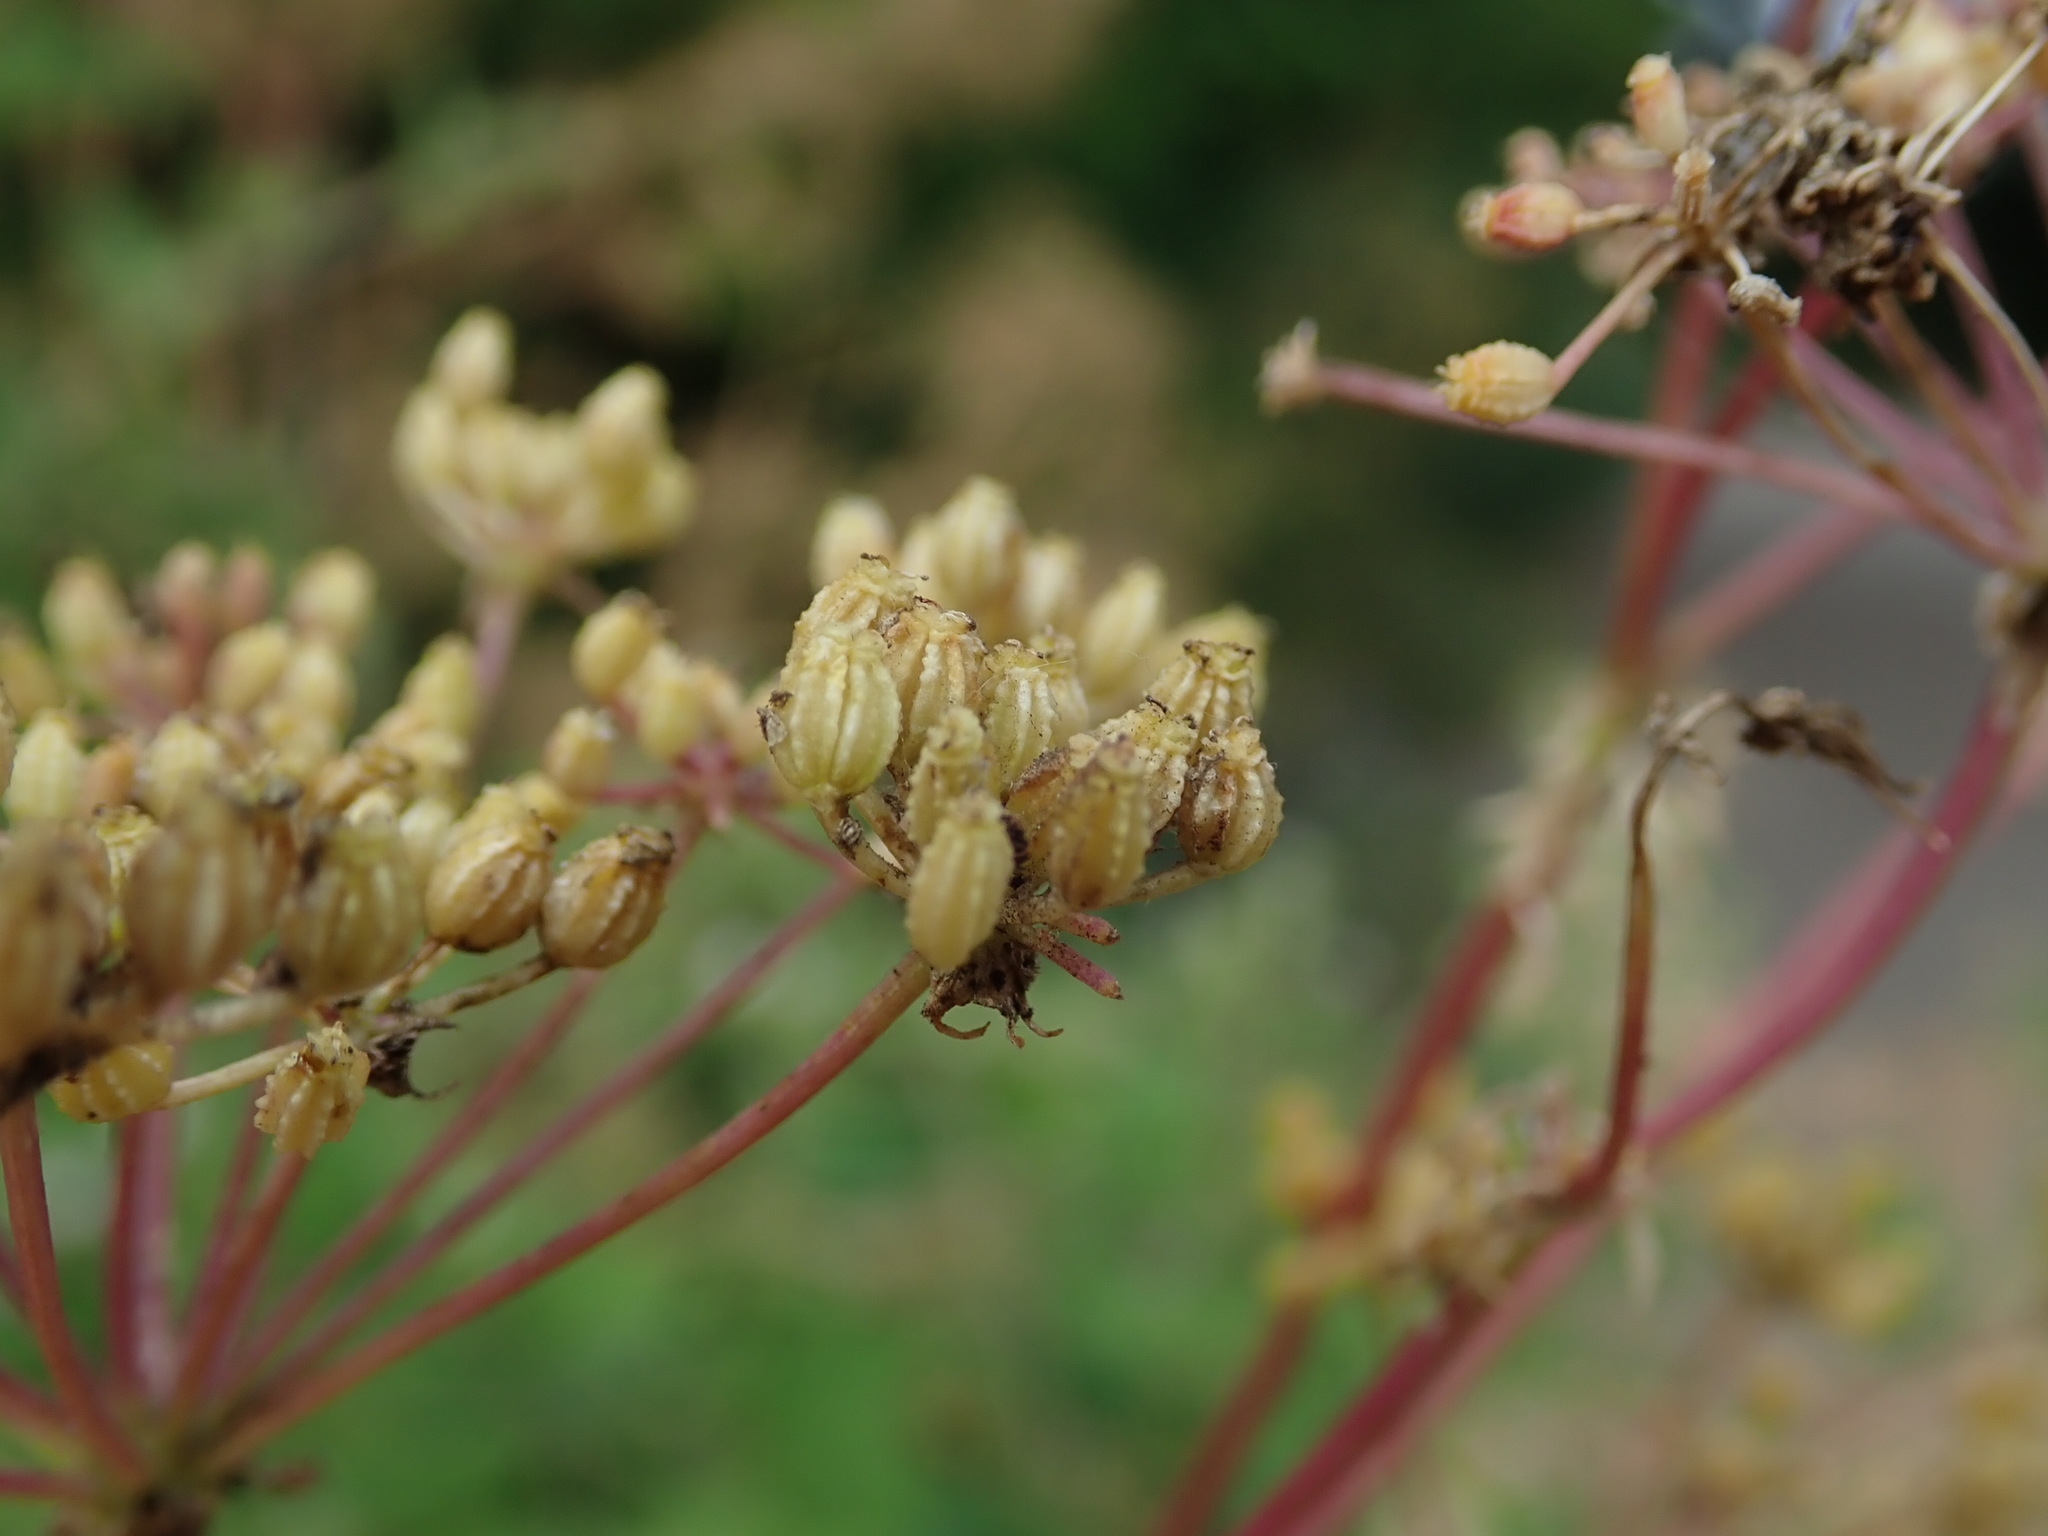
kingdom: Plantae
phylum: Tracheophyta
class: Magnoliopsida
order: Apiales
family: Apiaceae
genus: Conium
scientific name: Conium maculatum
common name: Hemlock
